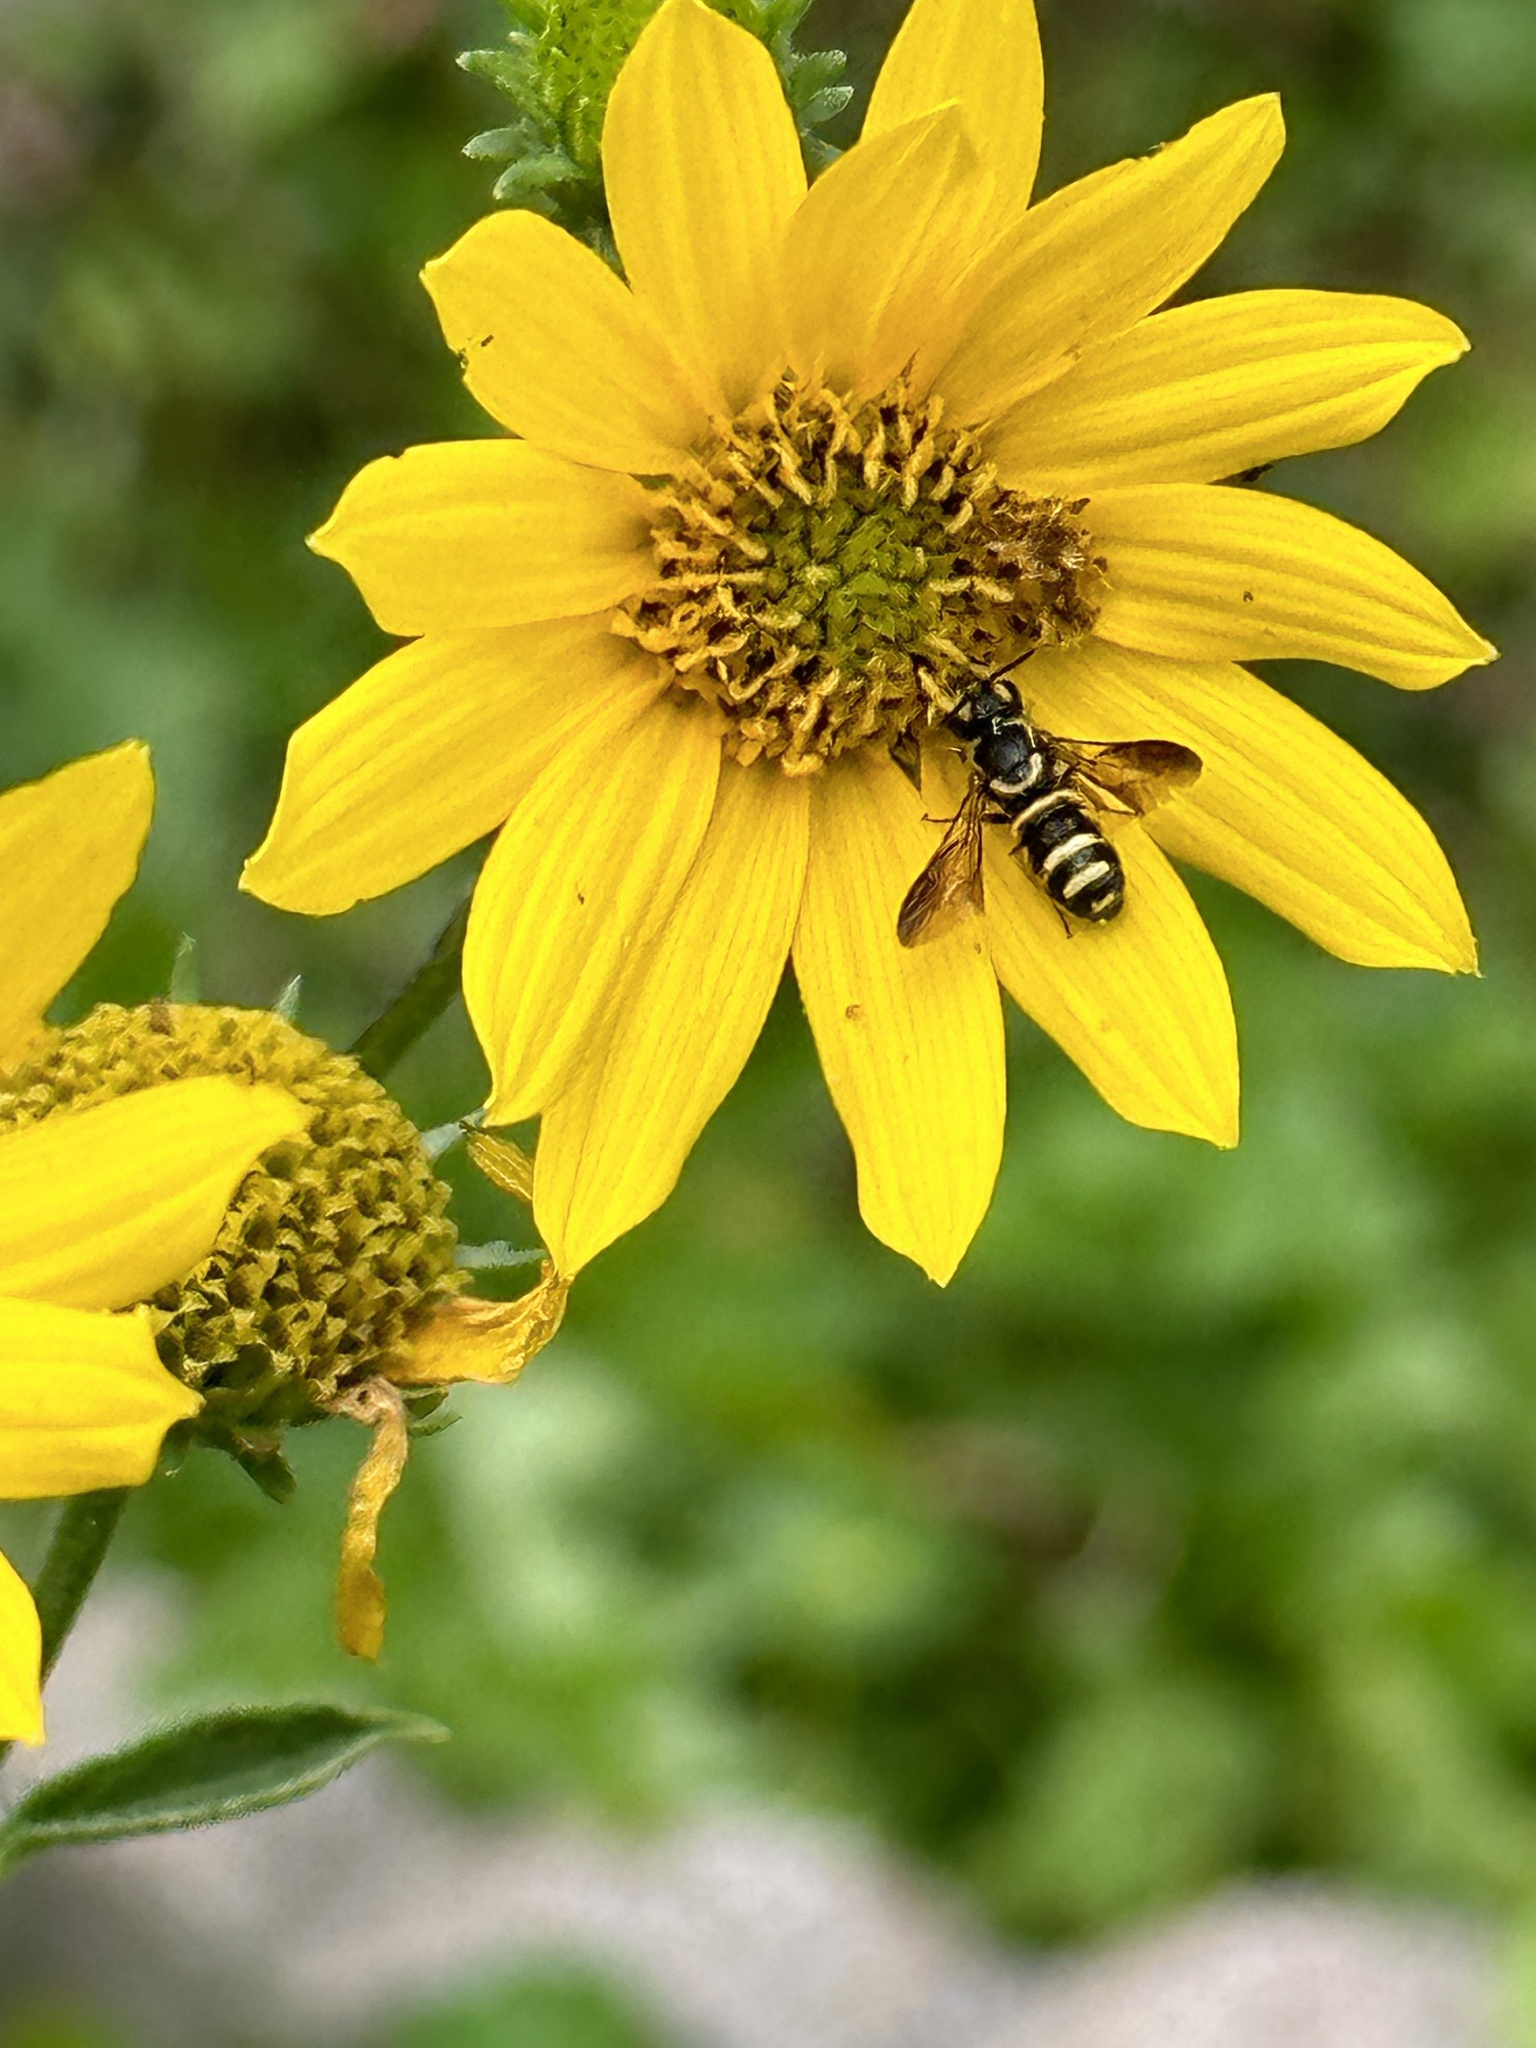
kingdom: Animalia
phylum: Arthropoda
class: Insecta
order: Hymenoptera
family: Megachilidae
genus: Stelis
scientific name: Stelis louisae
